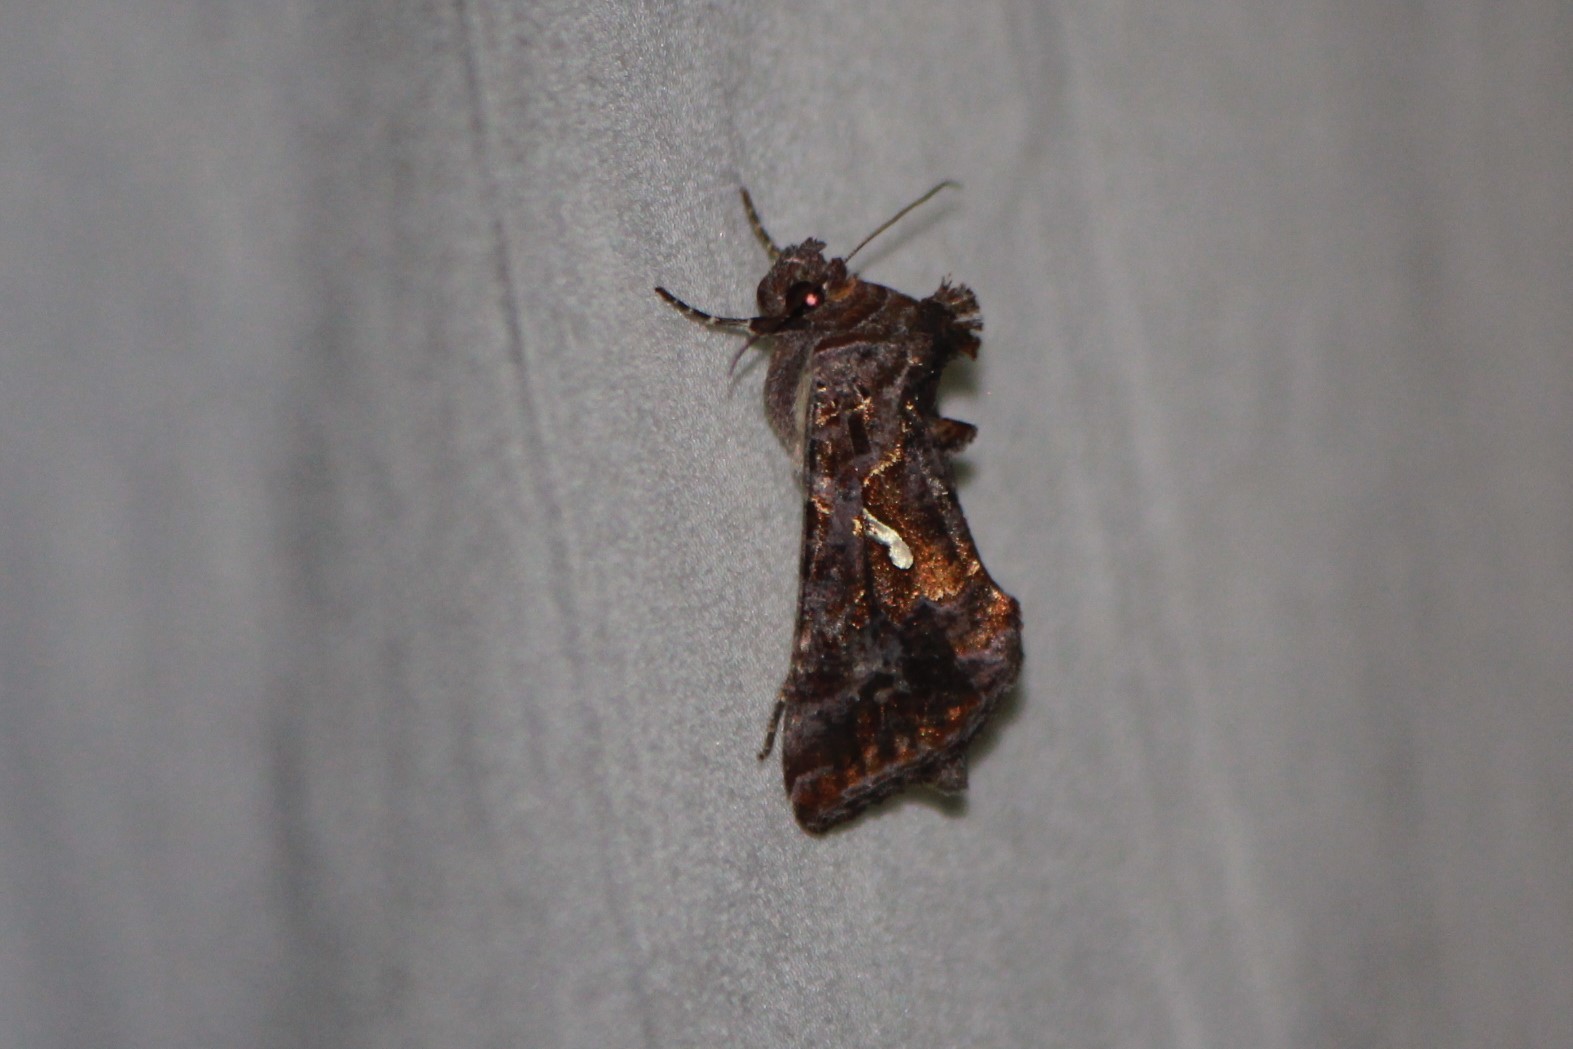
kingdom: Animalia
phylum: Arthropoda
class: Insecta
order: Lepidoptera
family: Noctuidae
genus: Autographa
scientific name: Autographa precationis
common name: Common looper moth
